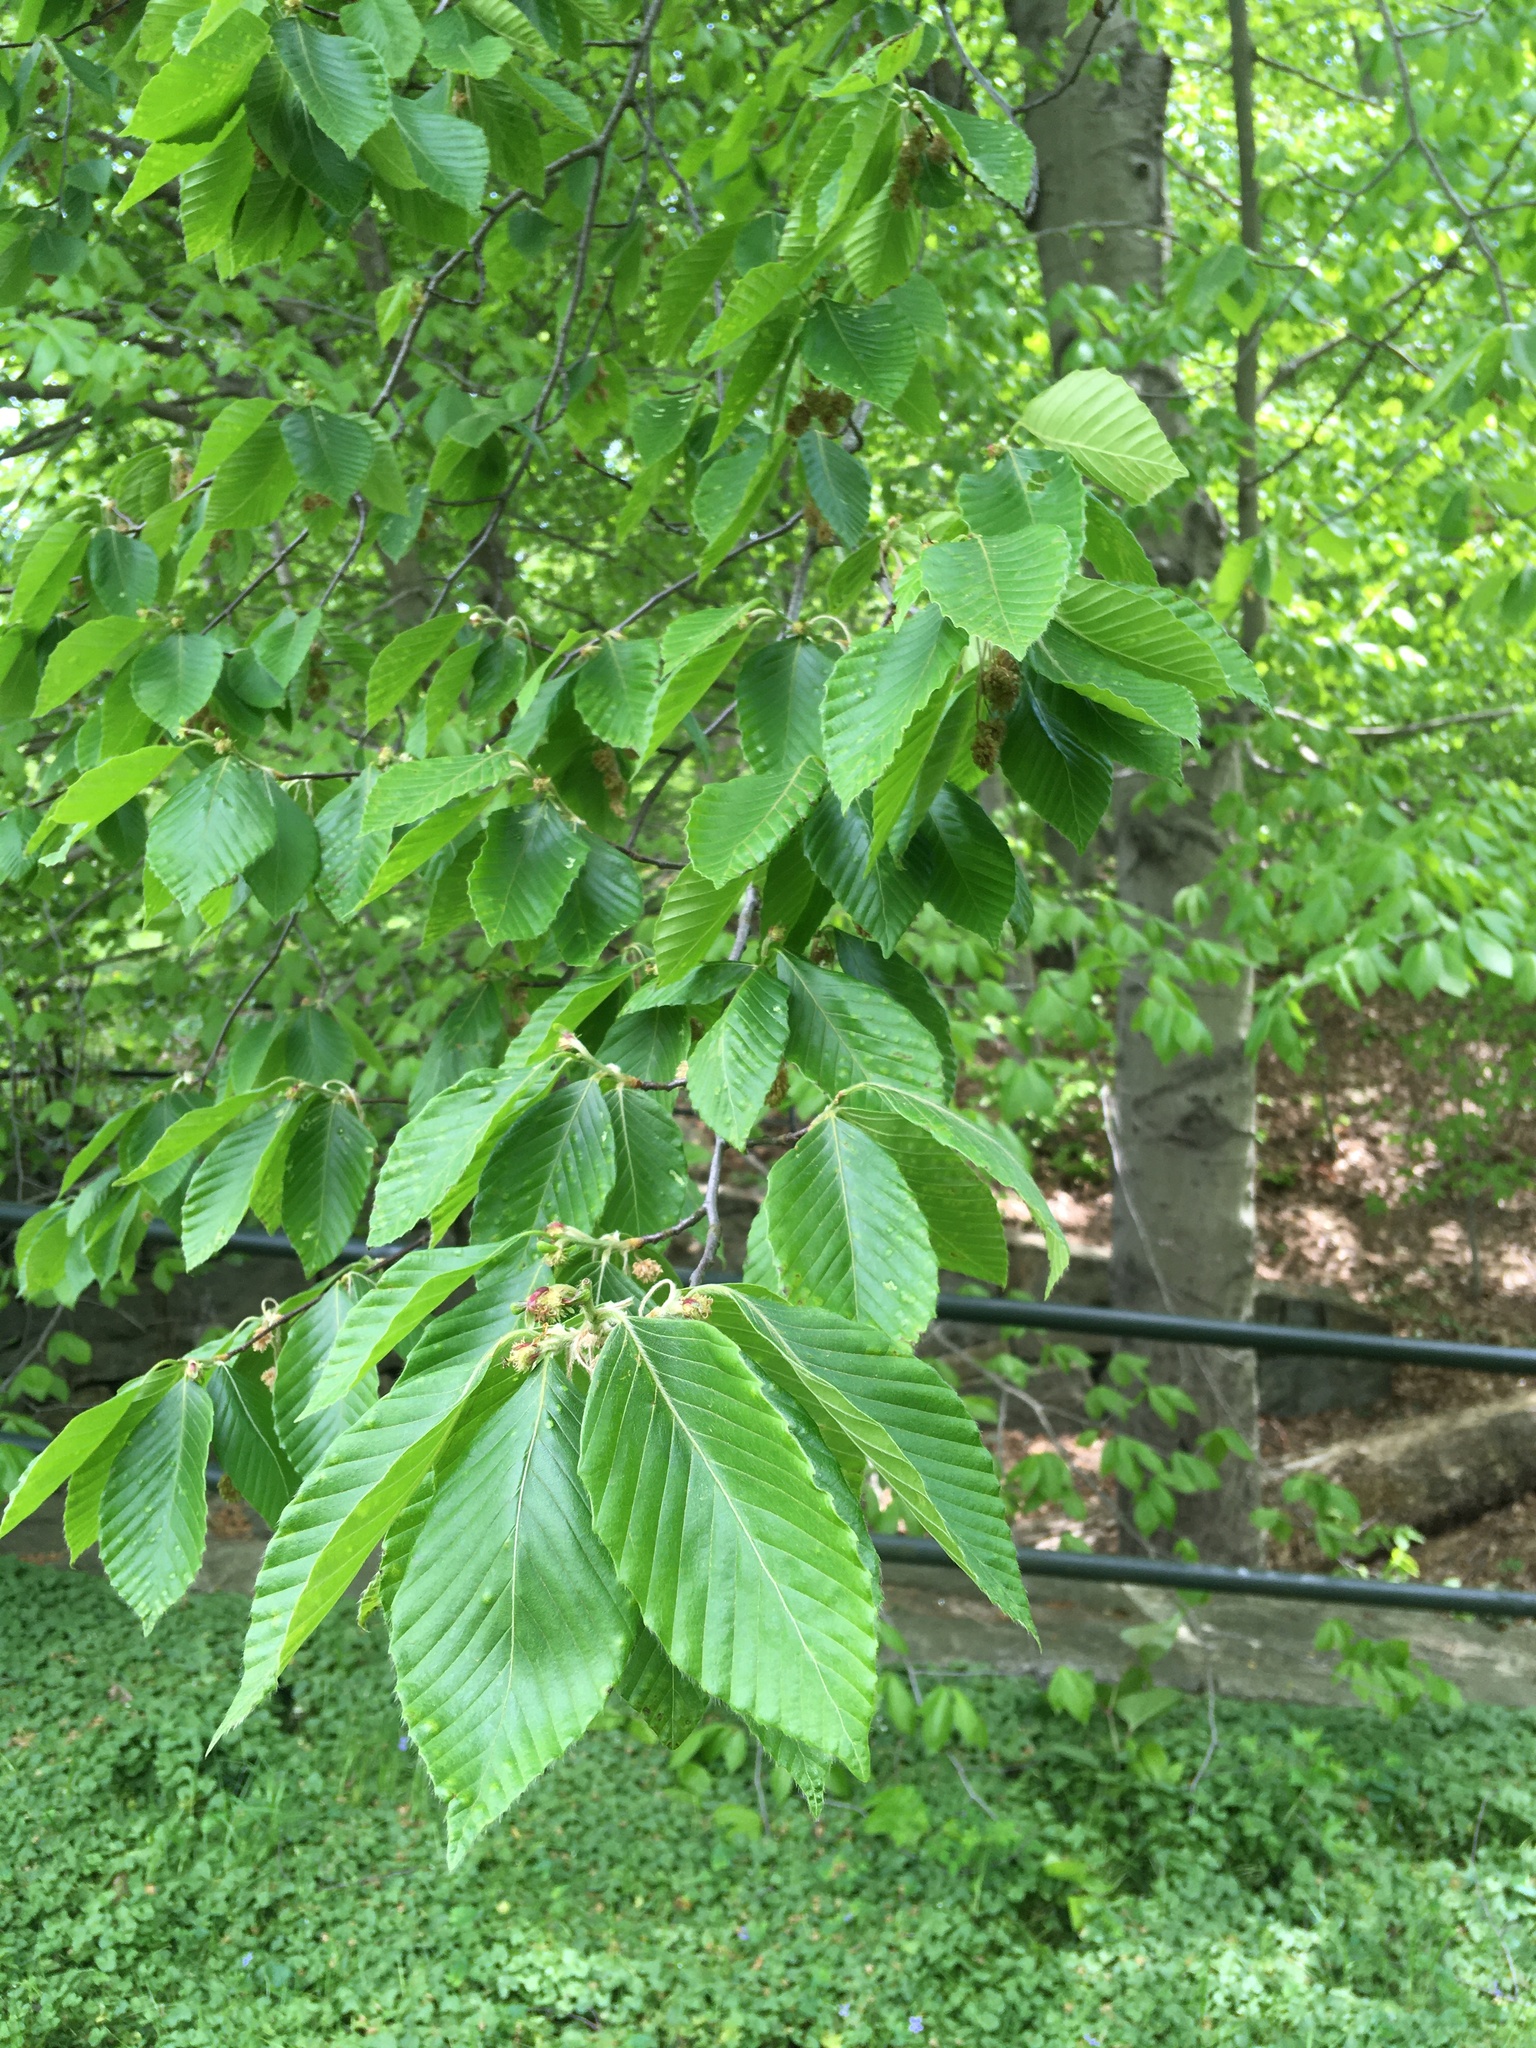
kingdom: Plantae
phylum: Tracheophyta
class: Magnoliopsida
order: Fagales
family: Fagaceae
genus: Fagus
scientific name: Fagus grandifolia
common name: American beech
